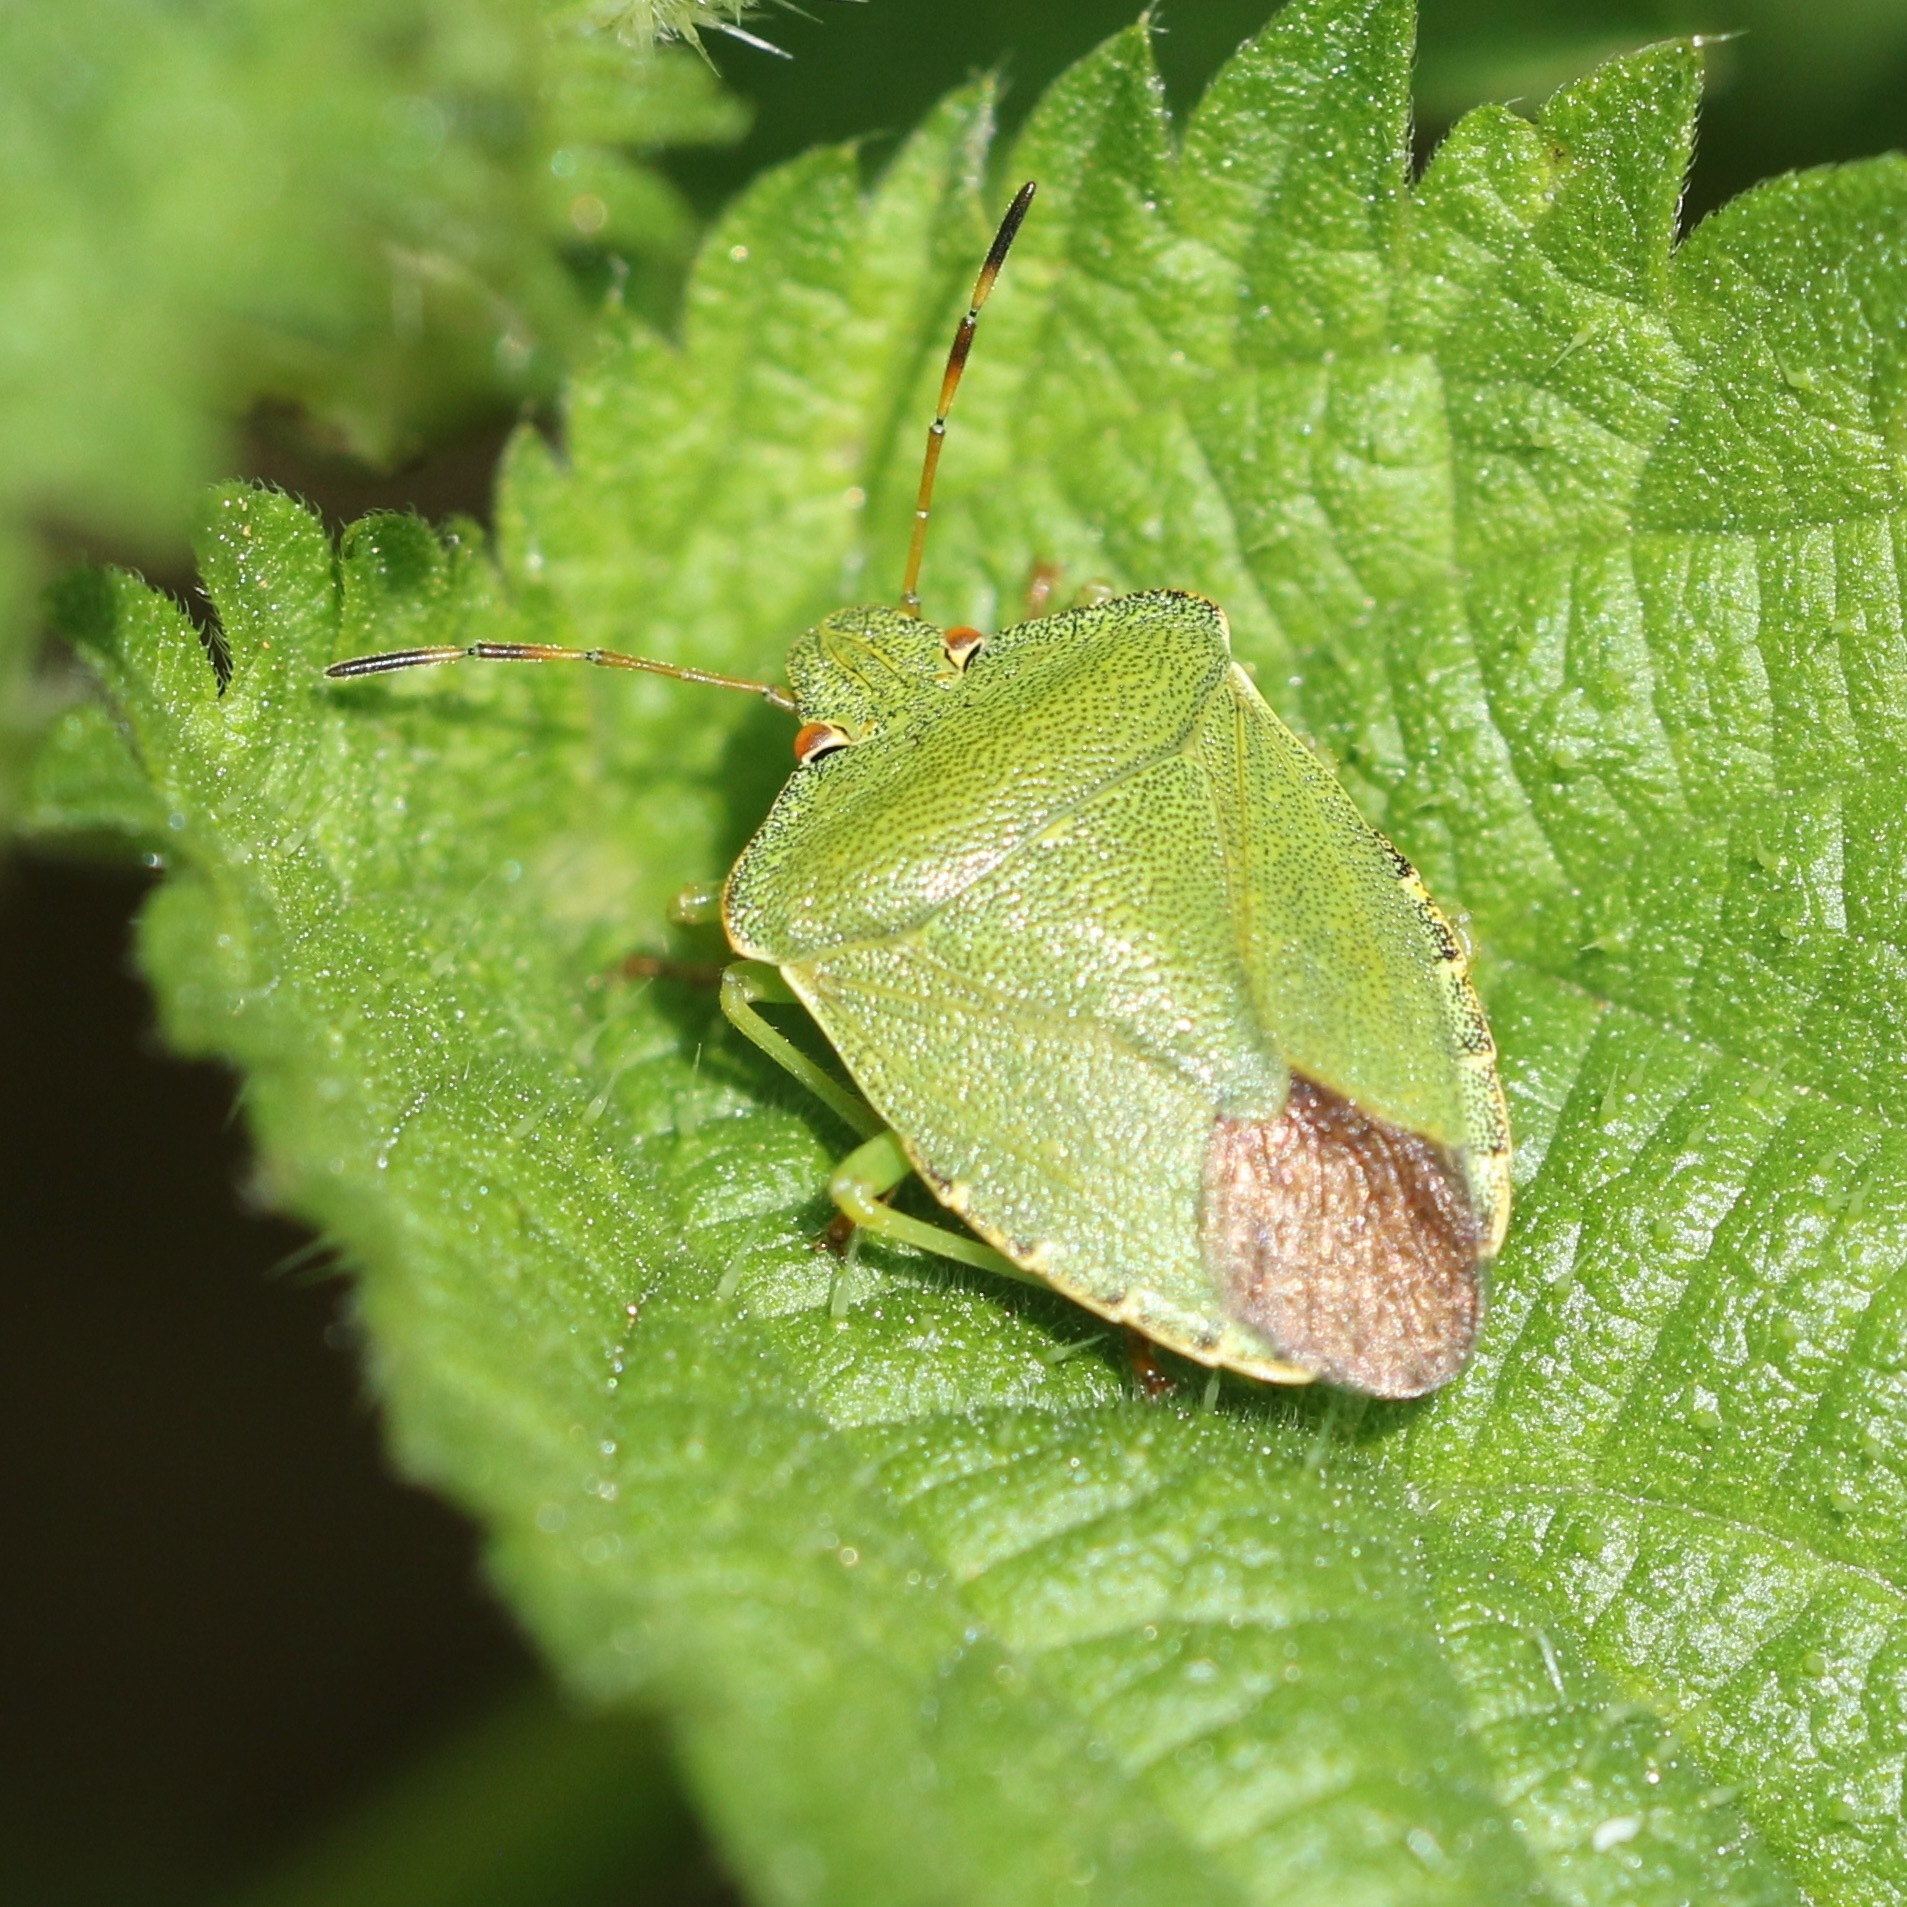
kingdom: Animalia
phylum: Arthropoda
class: Insecta
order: Hemiptera
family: Pentatomidae
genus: Palomena
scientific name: Palomena prasina
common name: Green shieldbug
